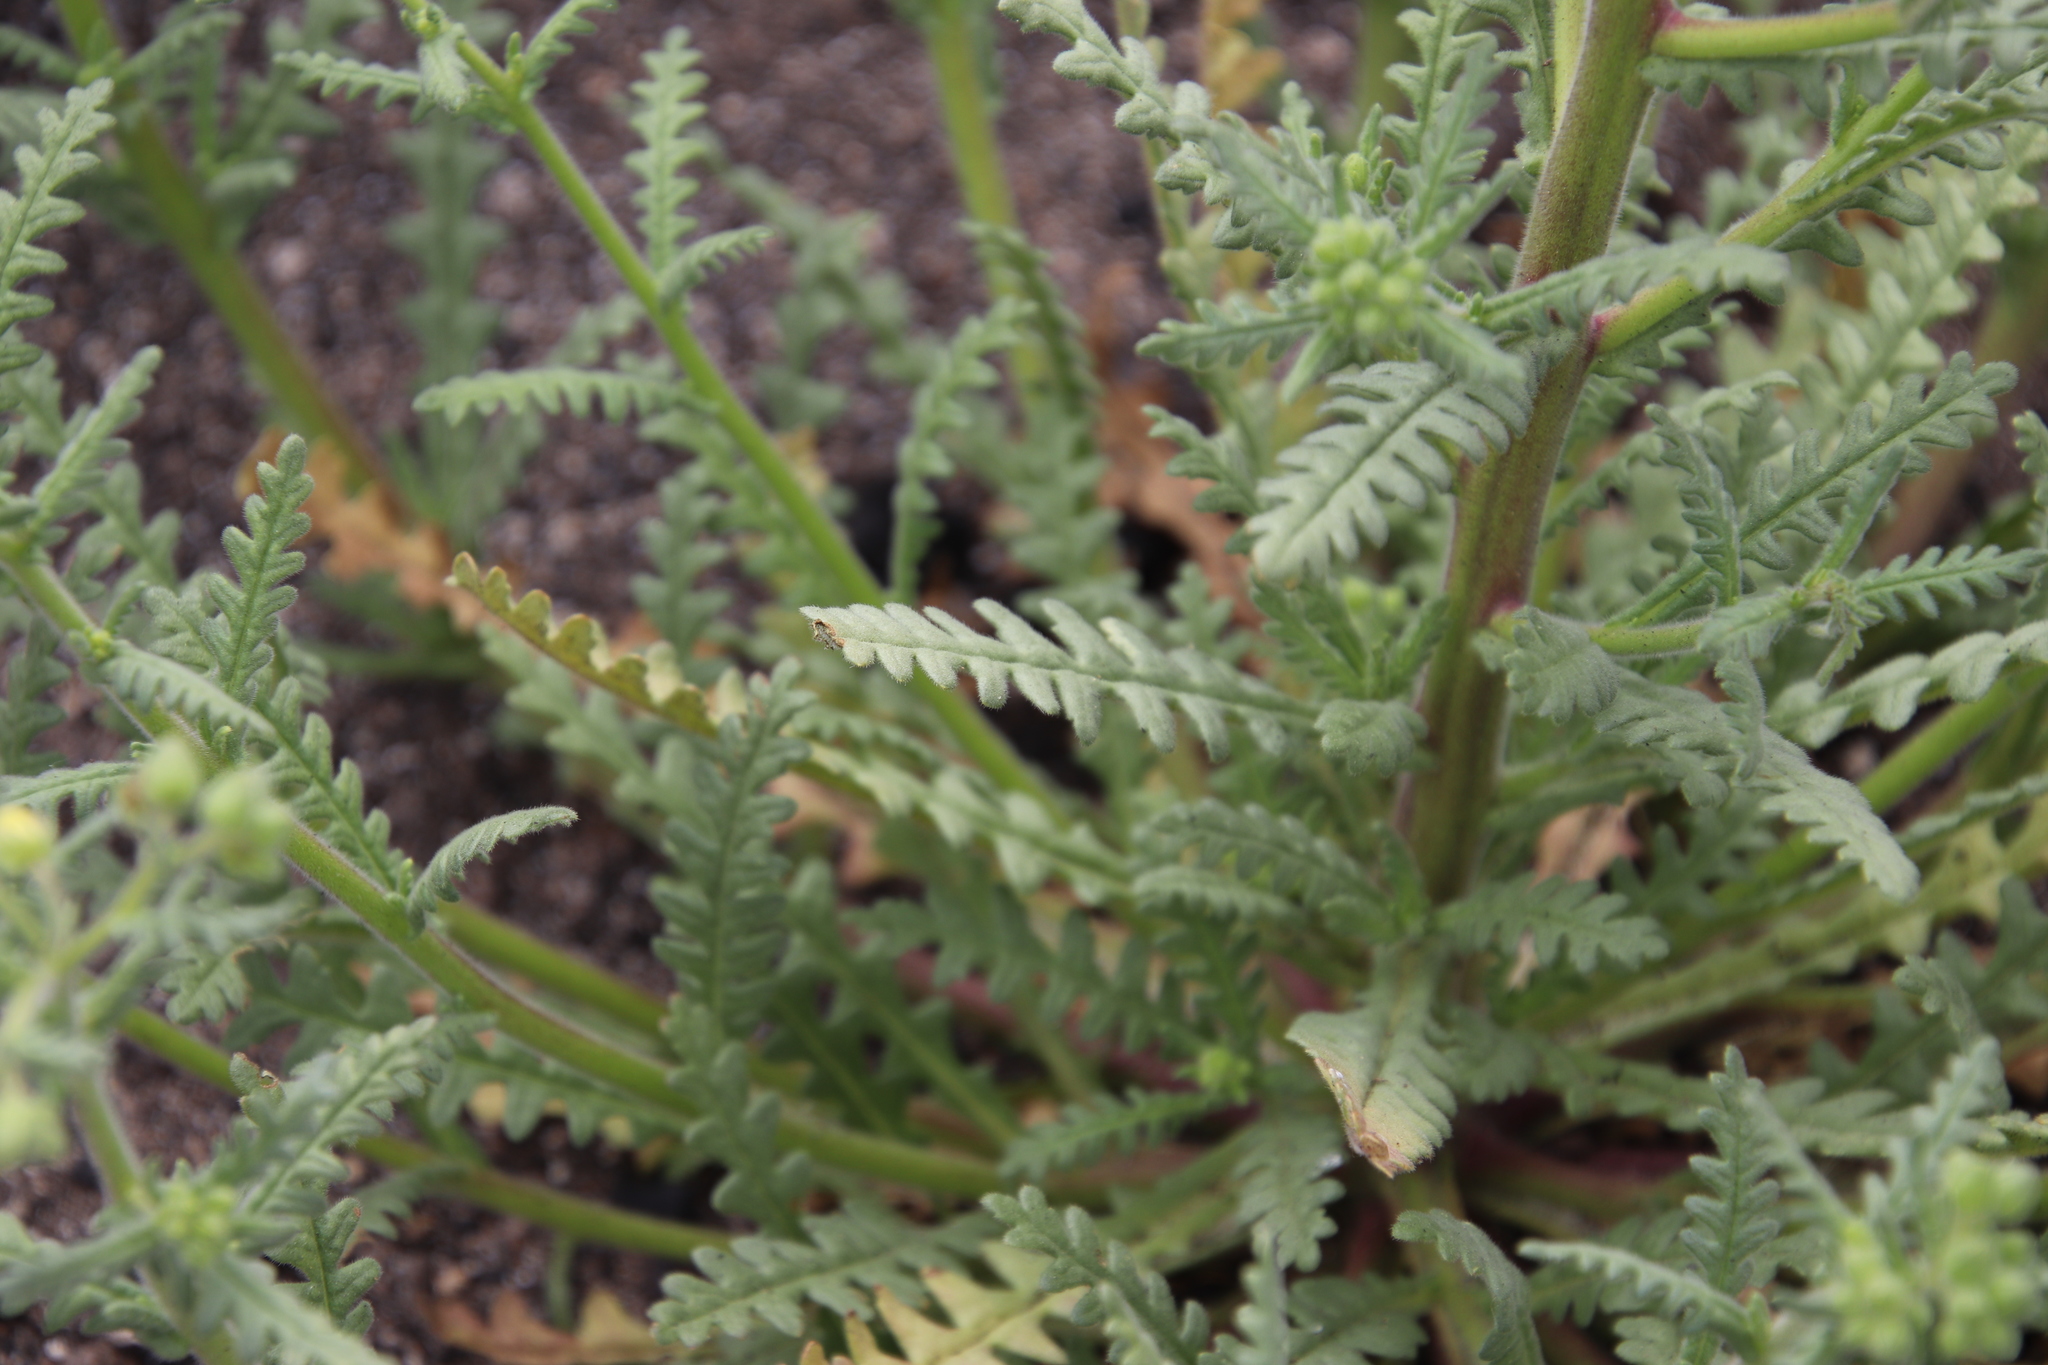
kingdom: Plantae
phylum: Tracheophyta
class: Magnoliopsida
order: Boraginales
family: Hydrophyllaceae
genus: Emmenanthe
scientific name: Emmenanthe penduliflora
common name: Whispering-bells
